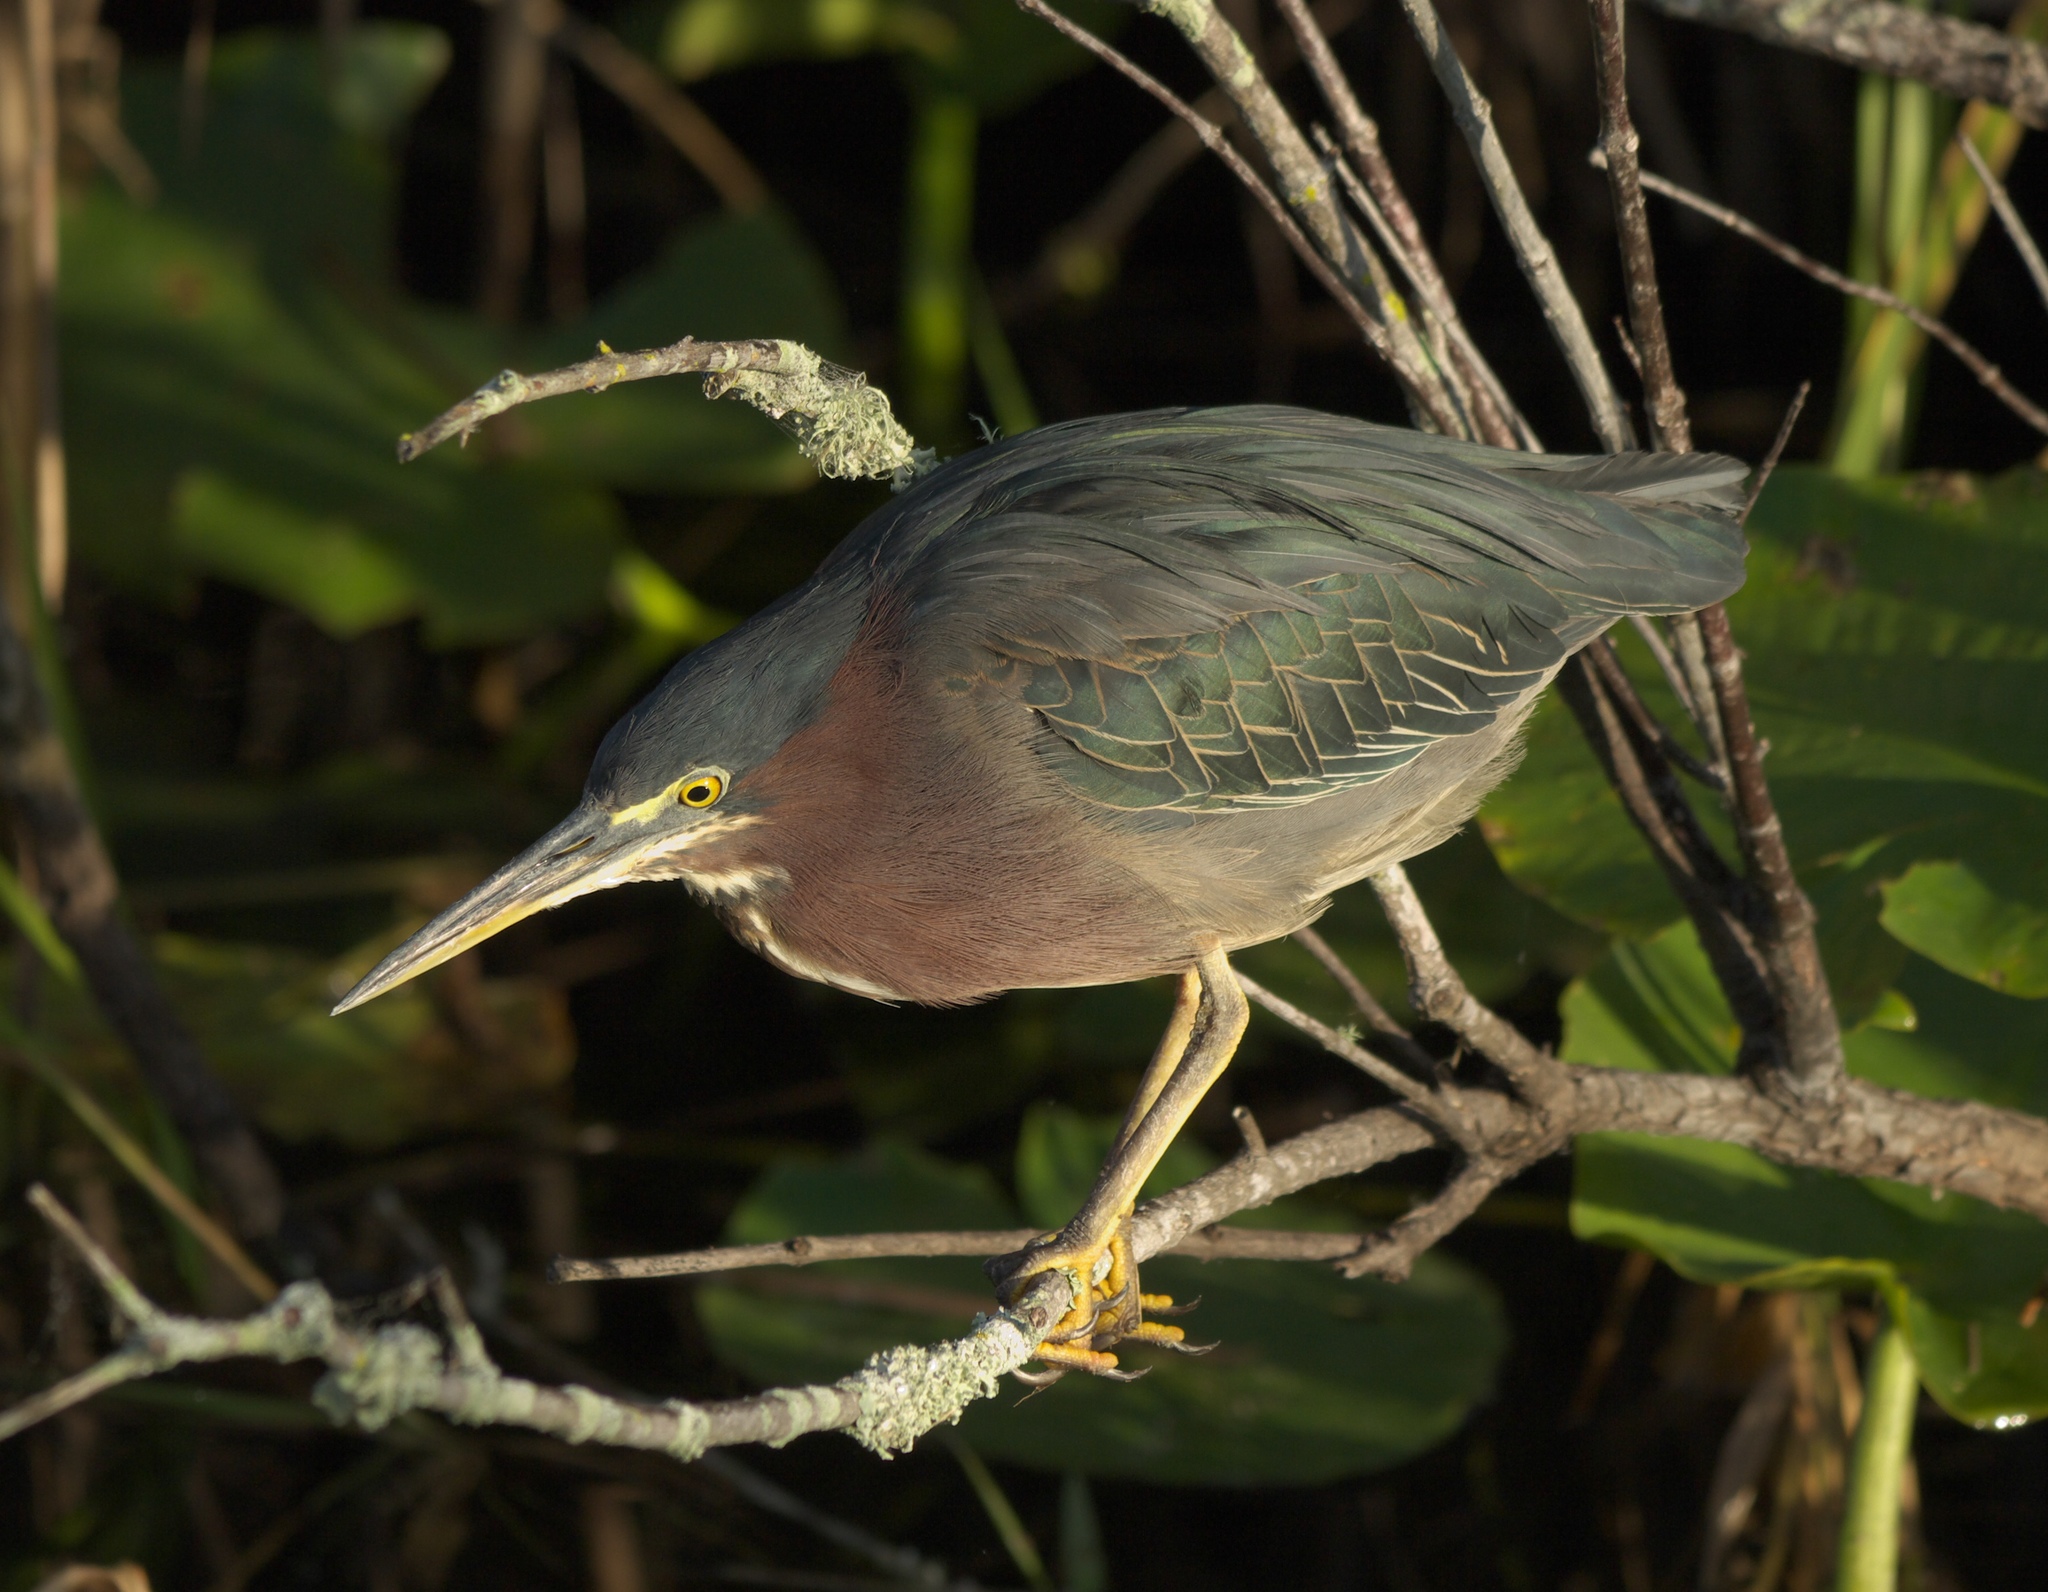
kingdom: Animalia
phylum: Chordata
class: Aves
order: Pelecaniformes
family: Ardeidae
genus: Butorides
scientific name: Butorides virescens
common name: Green heron
